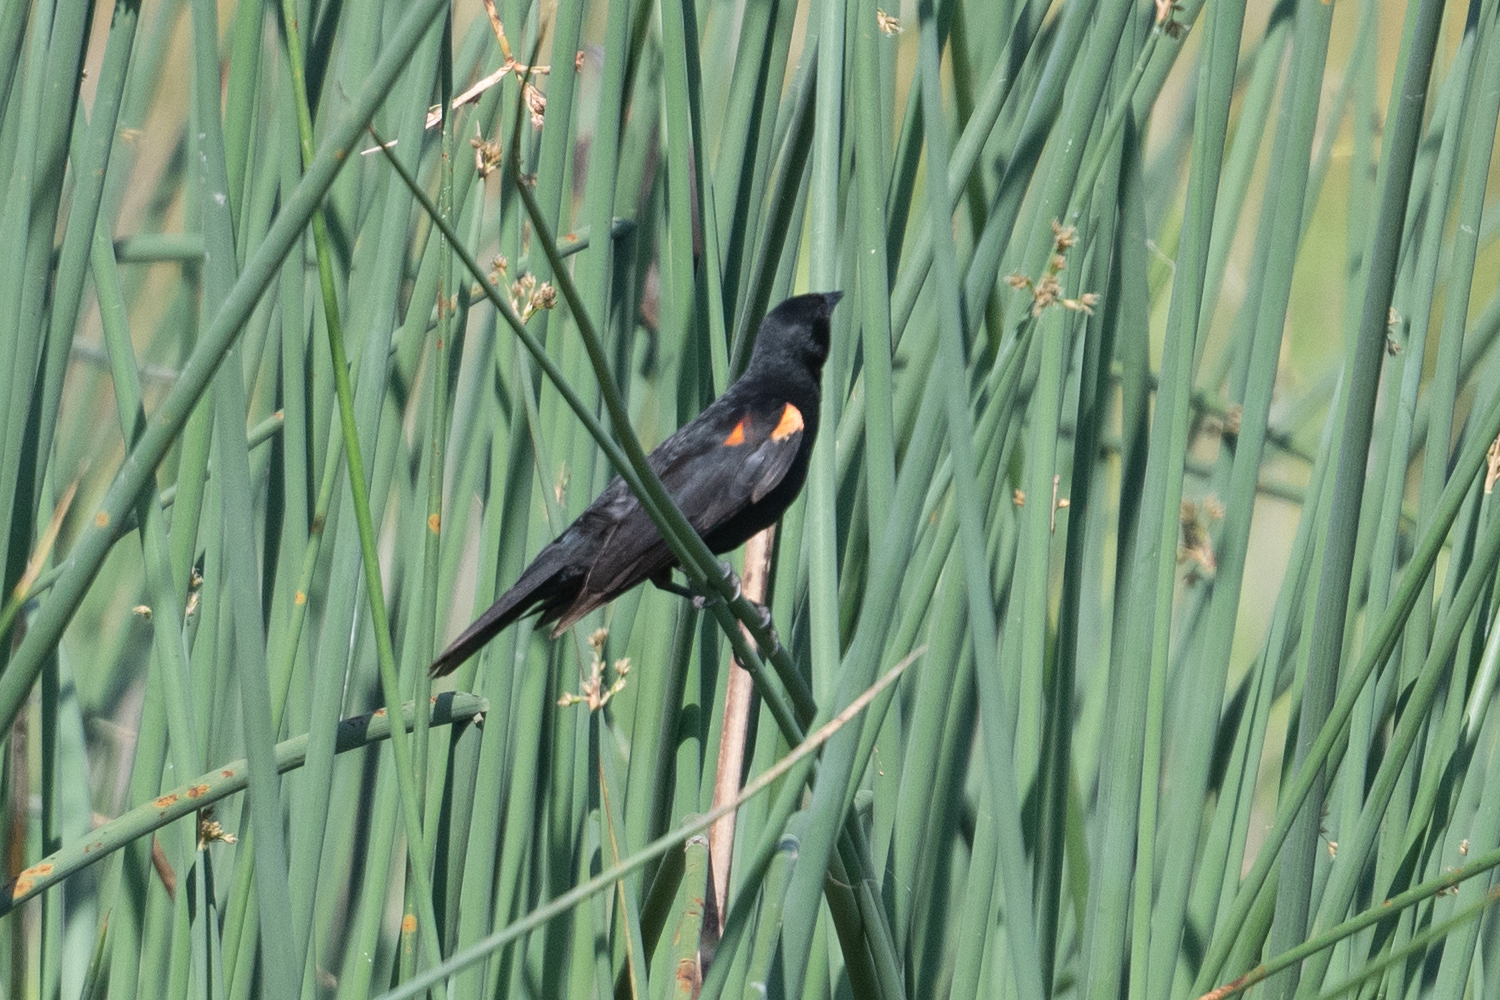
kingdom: Animalia
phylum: Chordata
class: Aves
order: Passeriformes
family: Icteridae
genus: Agelaius
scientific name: Agelaius phoeniceus
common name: Red-winged blackbird
